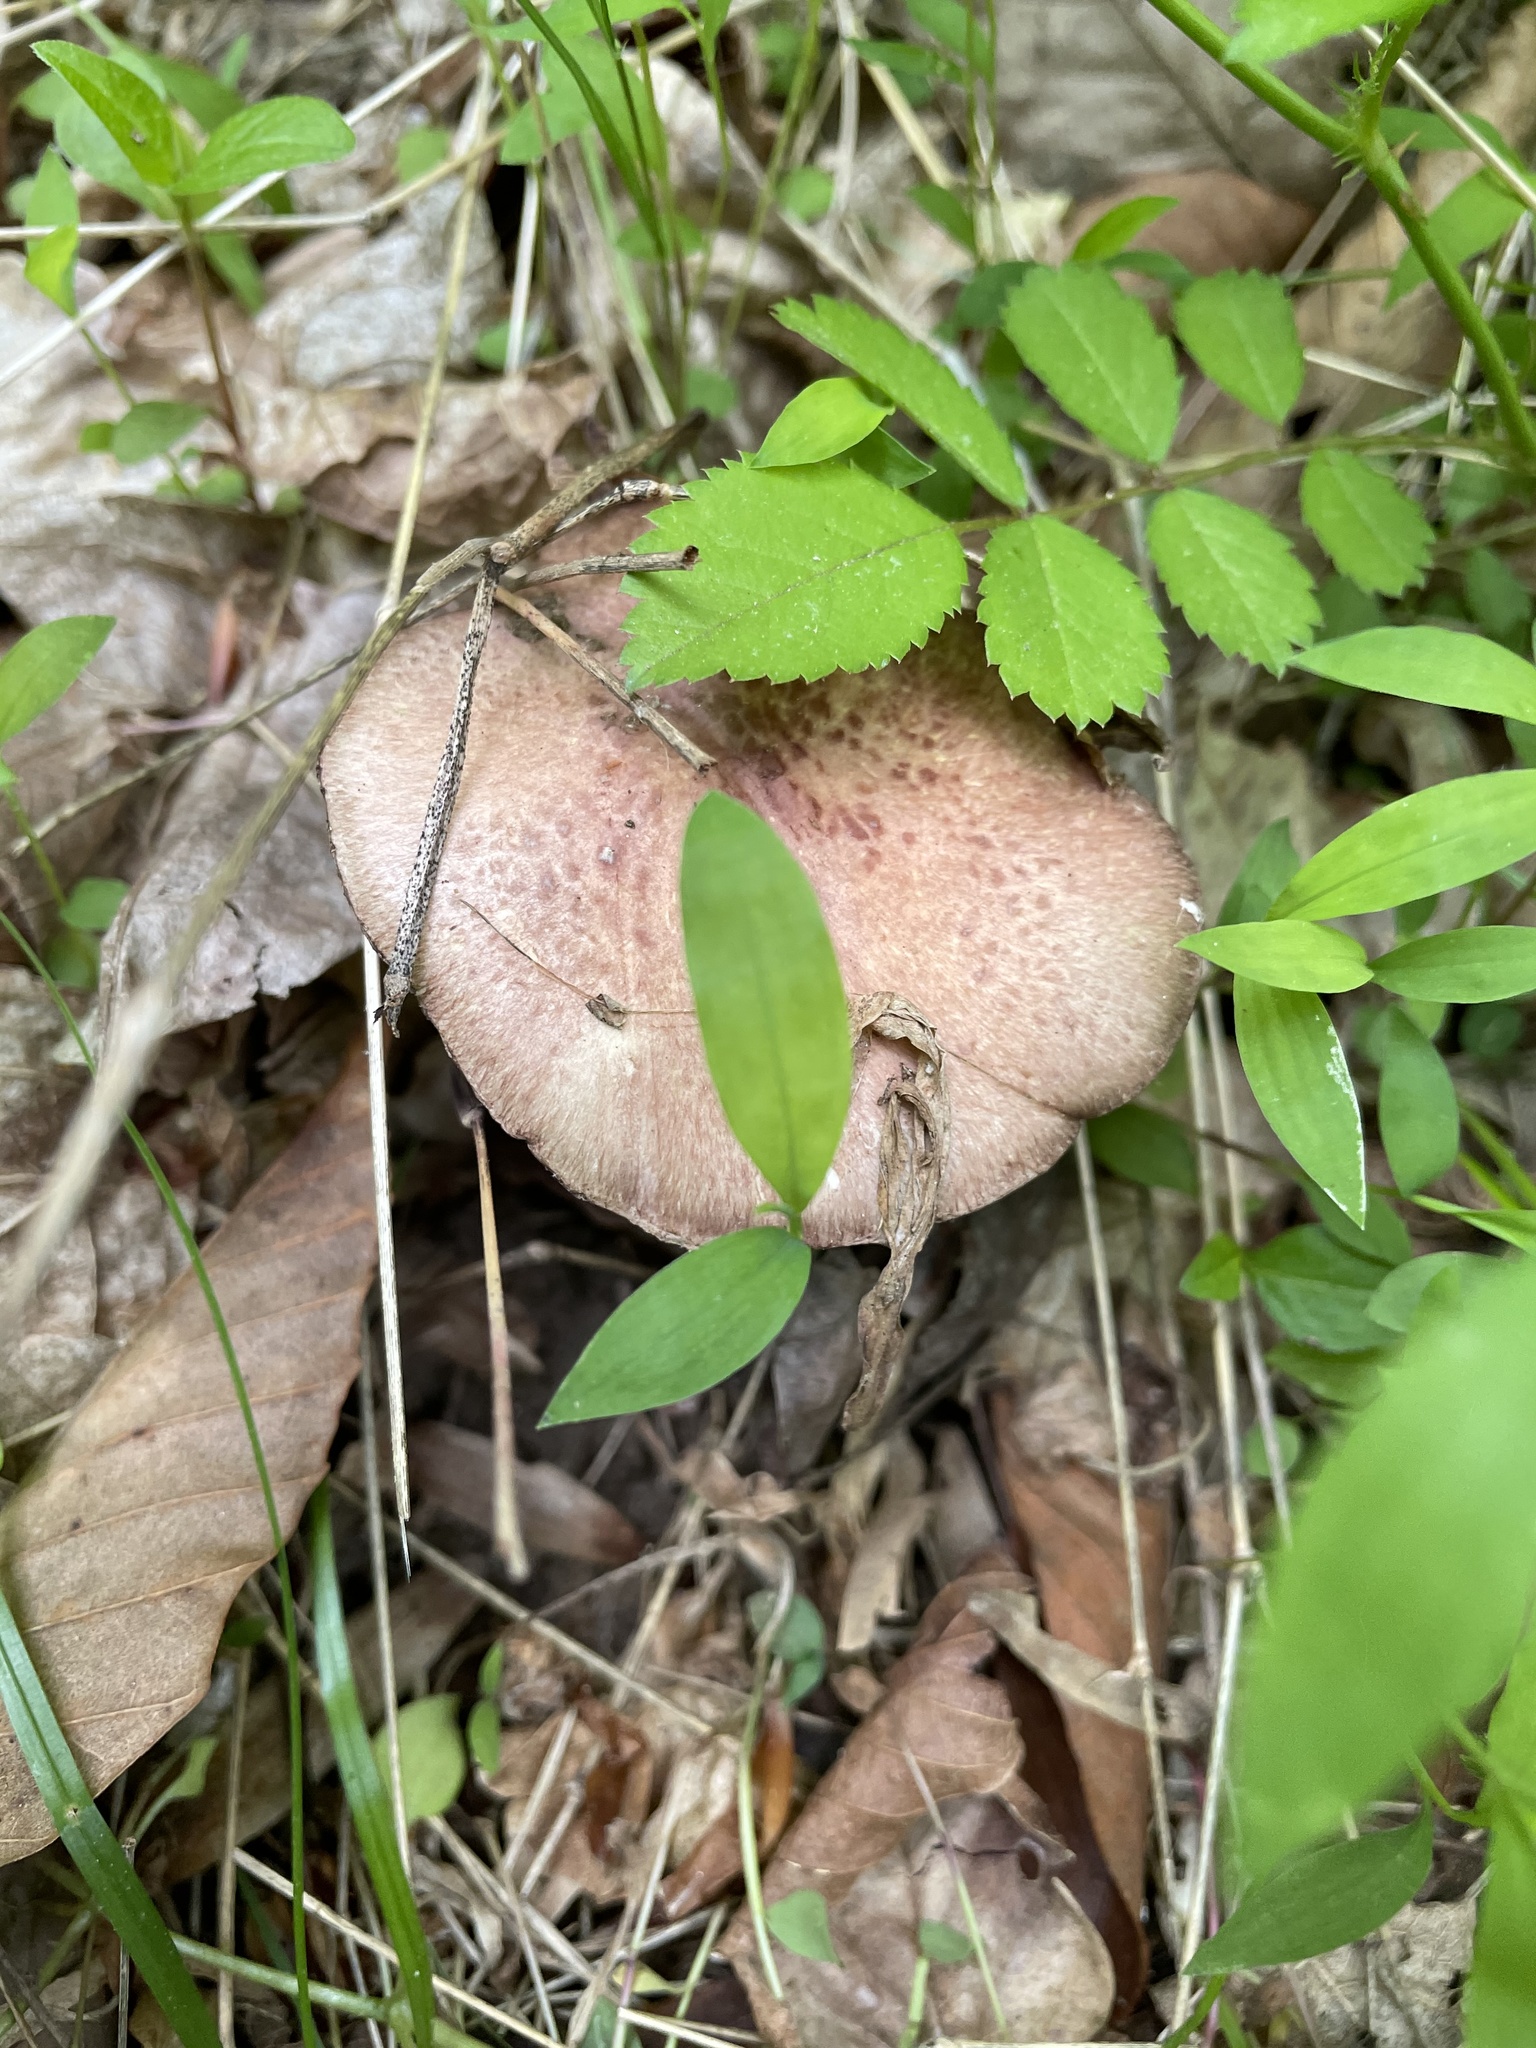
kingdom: Fungi
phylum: Basidiomycota
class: Agaricomycetes
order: Agaricales
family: Strophariaceae
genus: Stropharia
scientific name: Stropharia rugosoannulata
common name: Wine roundhead
